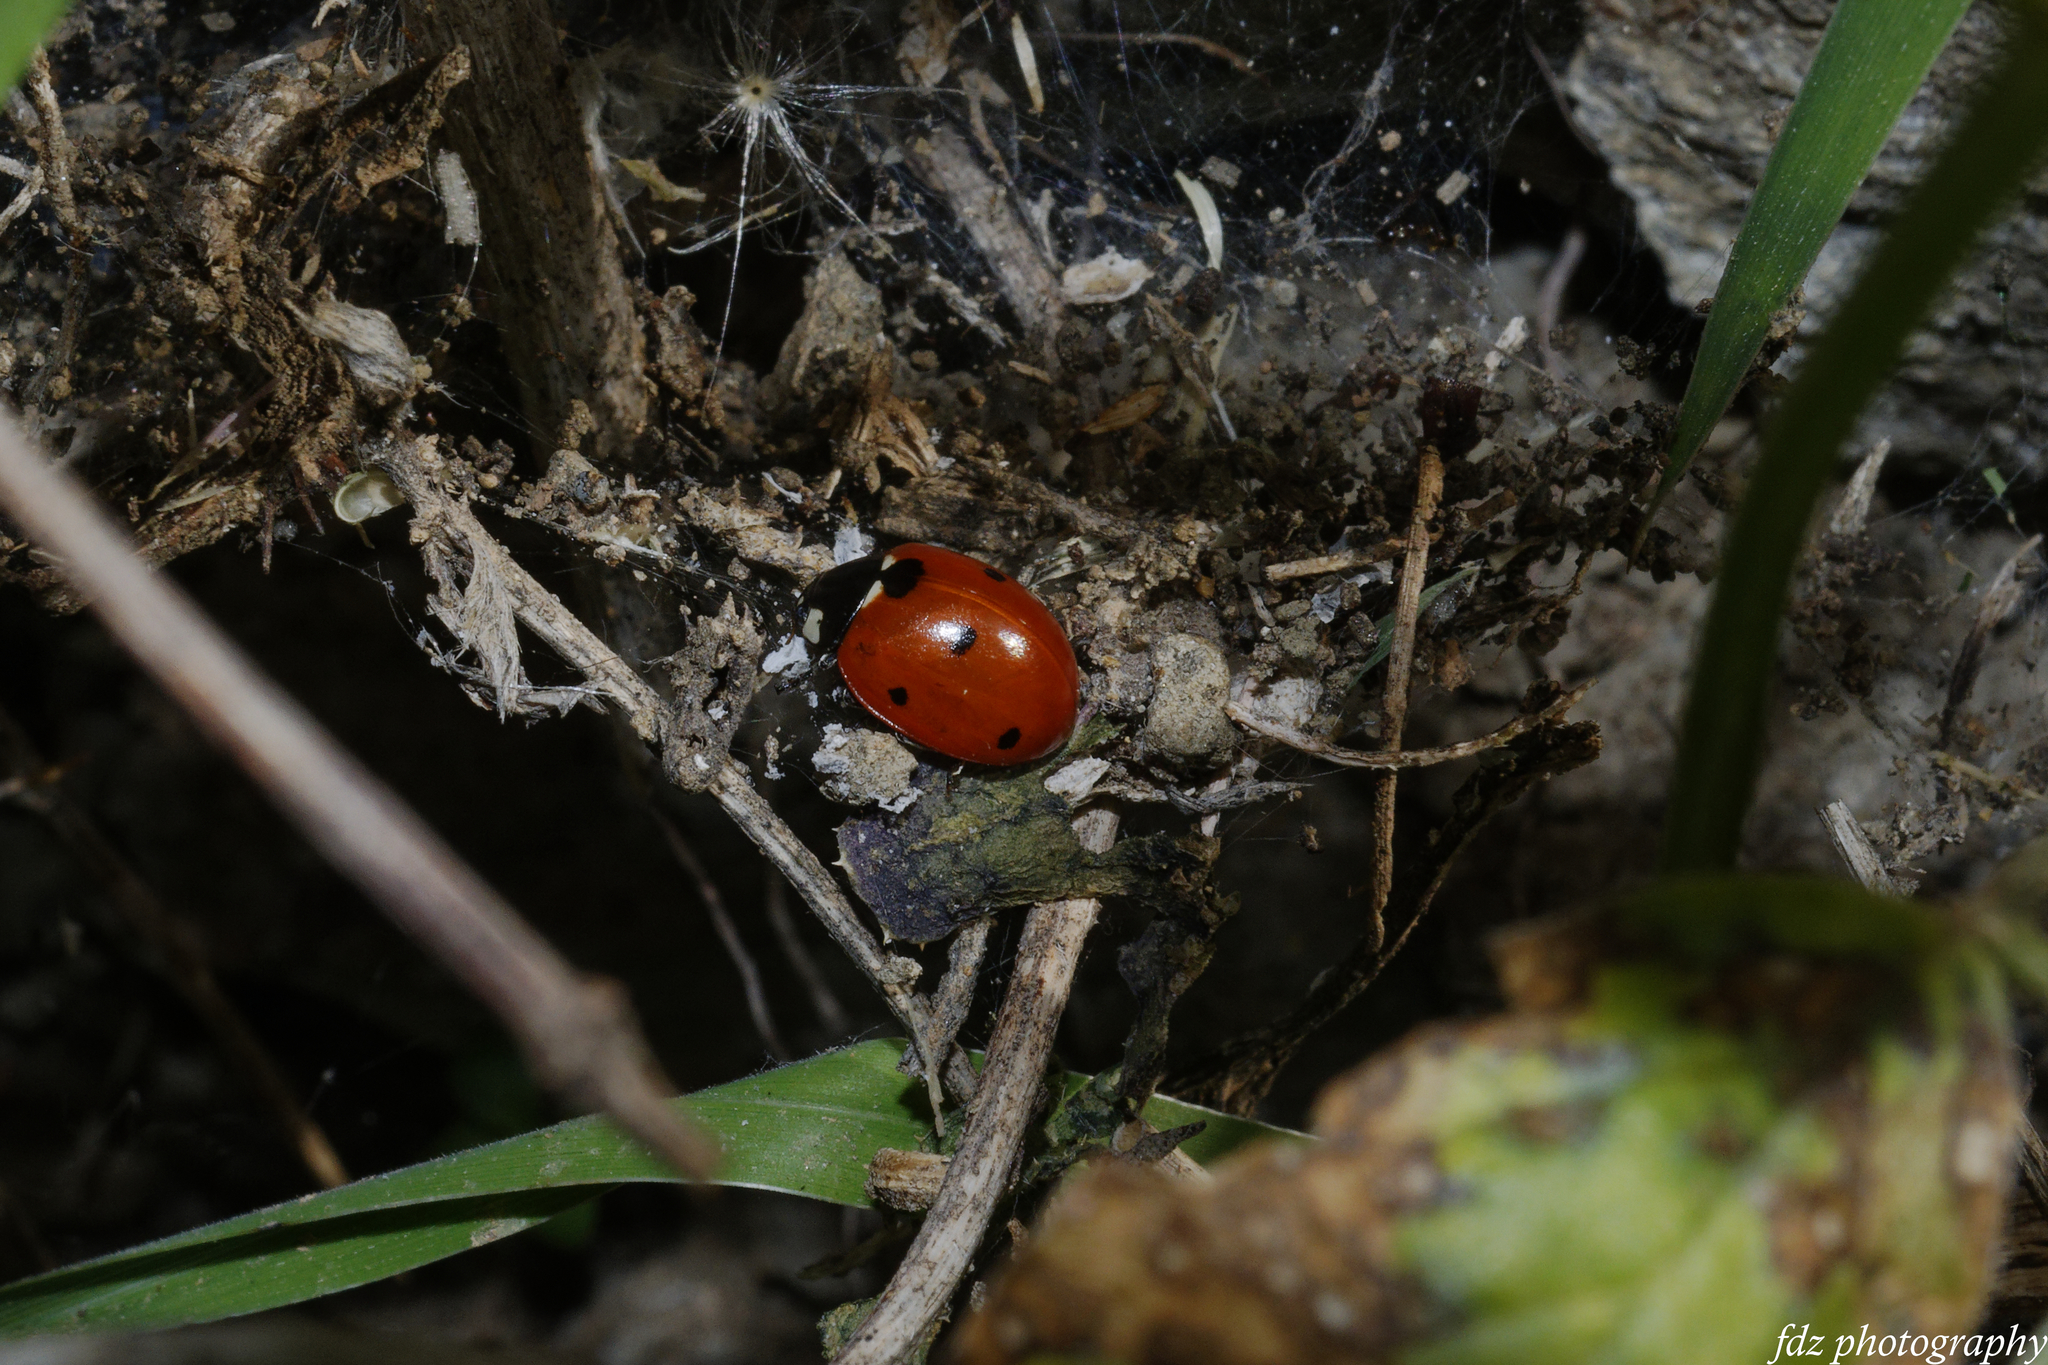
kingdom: Animalia
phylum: Arthropoda
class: Insecta
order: Coleoptera
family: Coccinellidae
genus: Coccinella
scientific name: Coccinella septempunctata
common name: Sevenspotted lady beetle
